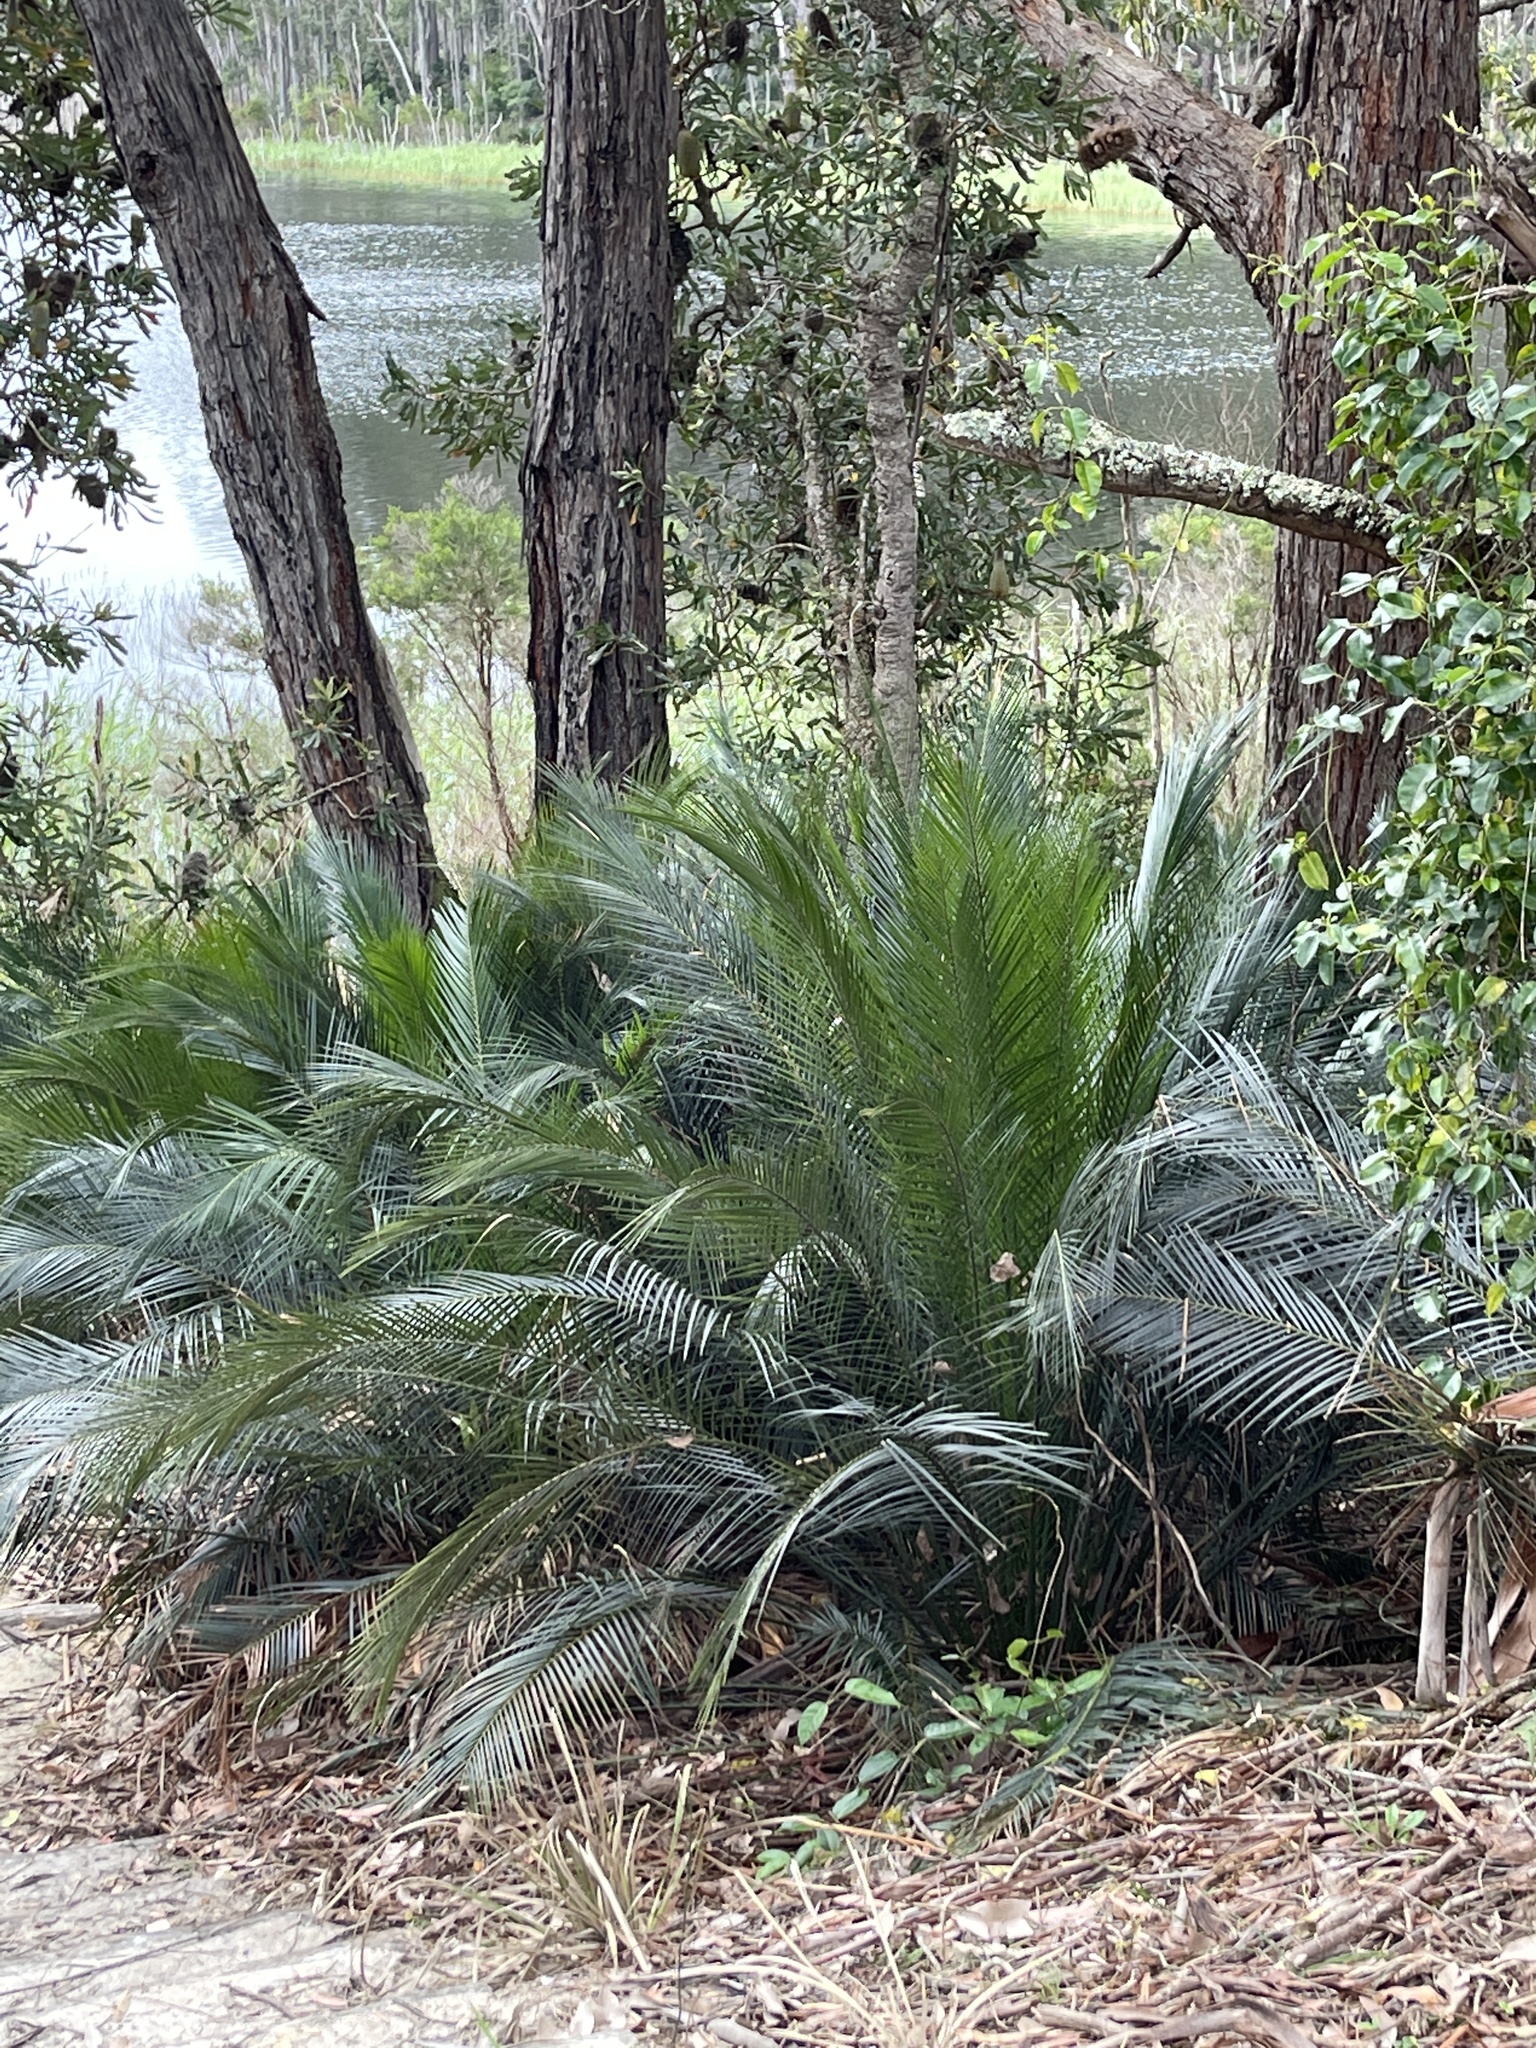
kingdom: Plantae
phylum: Tracheophyta
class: Cycadopsida
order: Cycadales
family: Zamiaceae
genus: Macrozamia
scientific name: Macrozamia communis
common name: Burrawong
